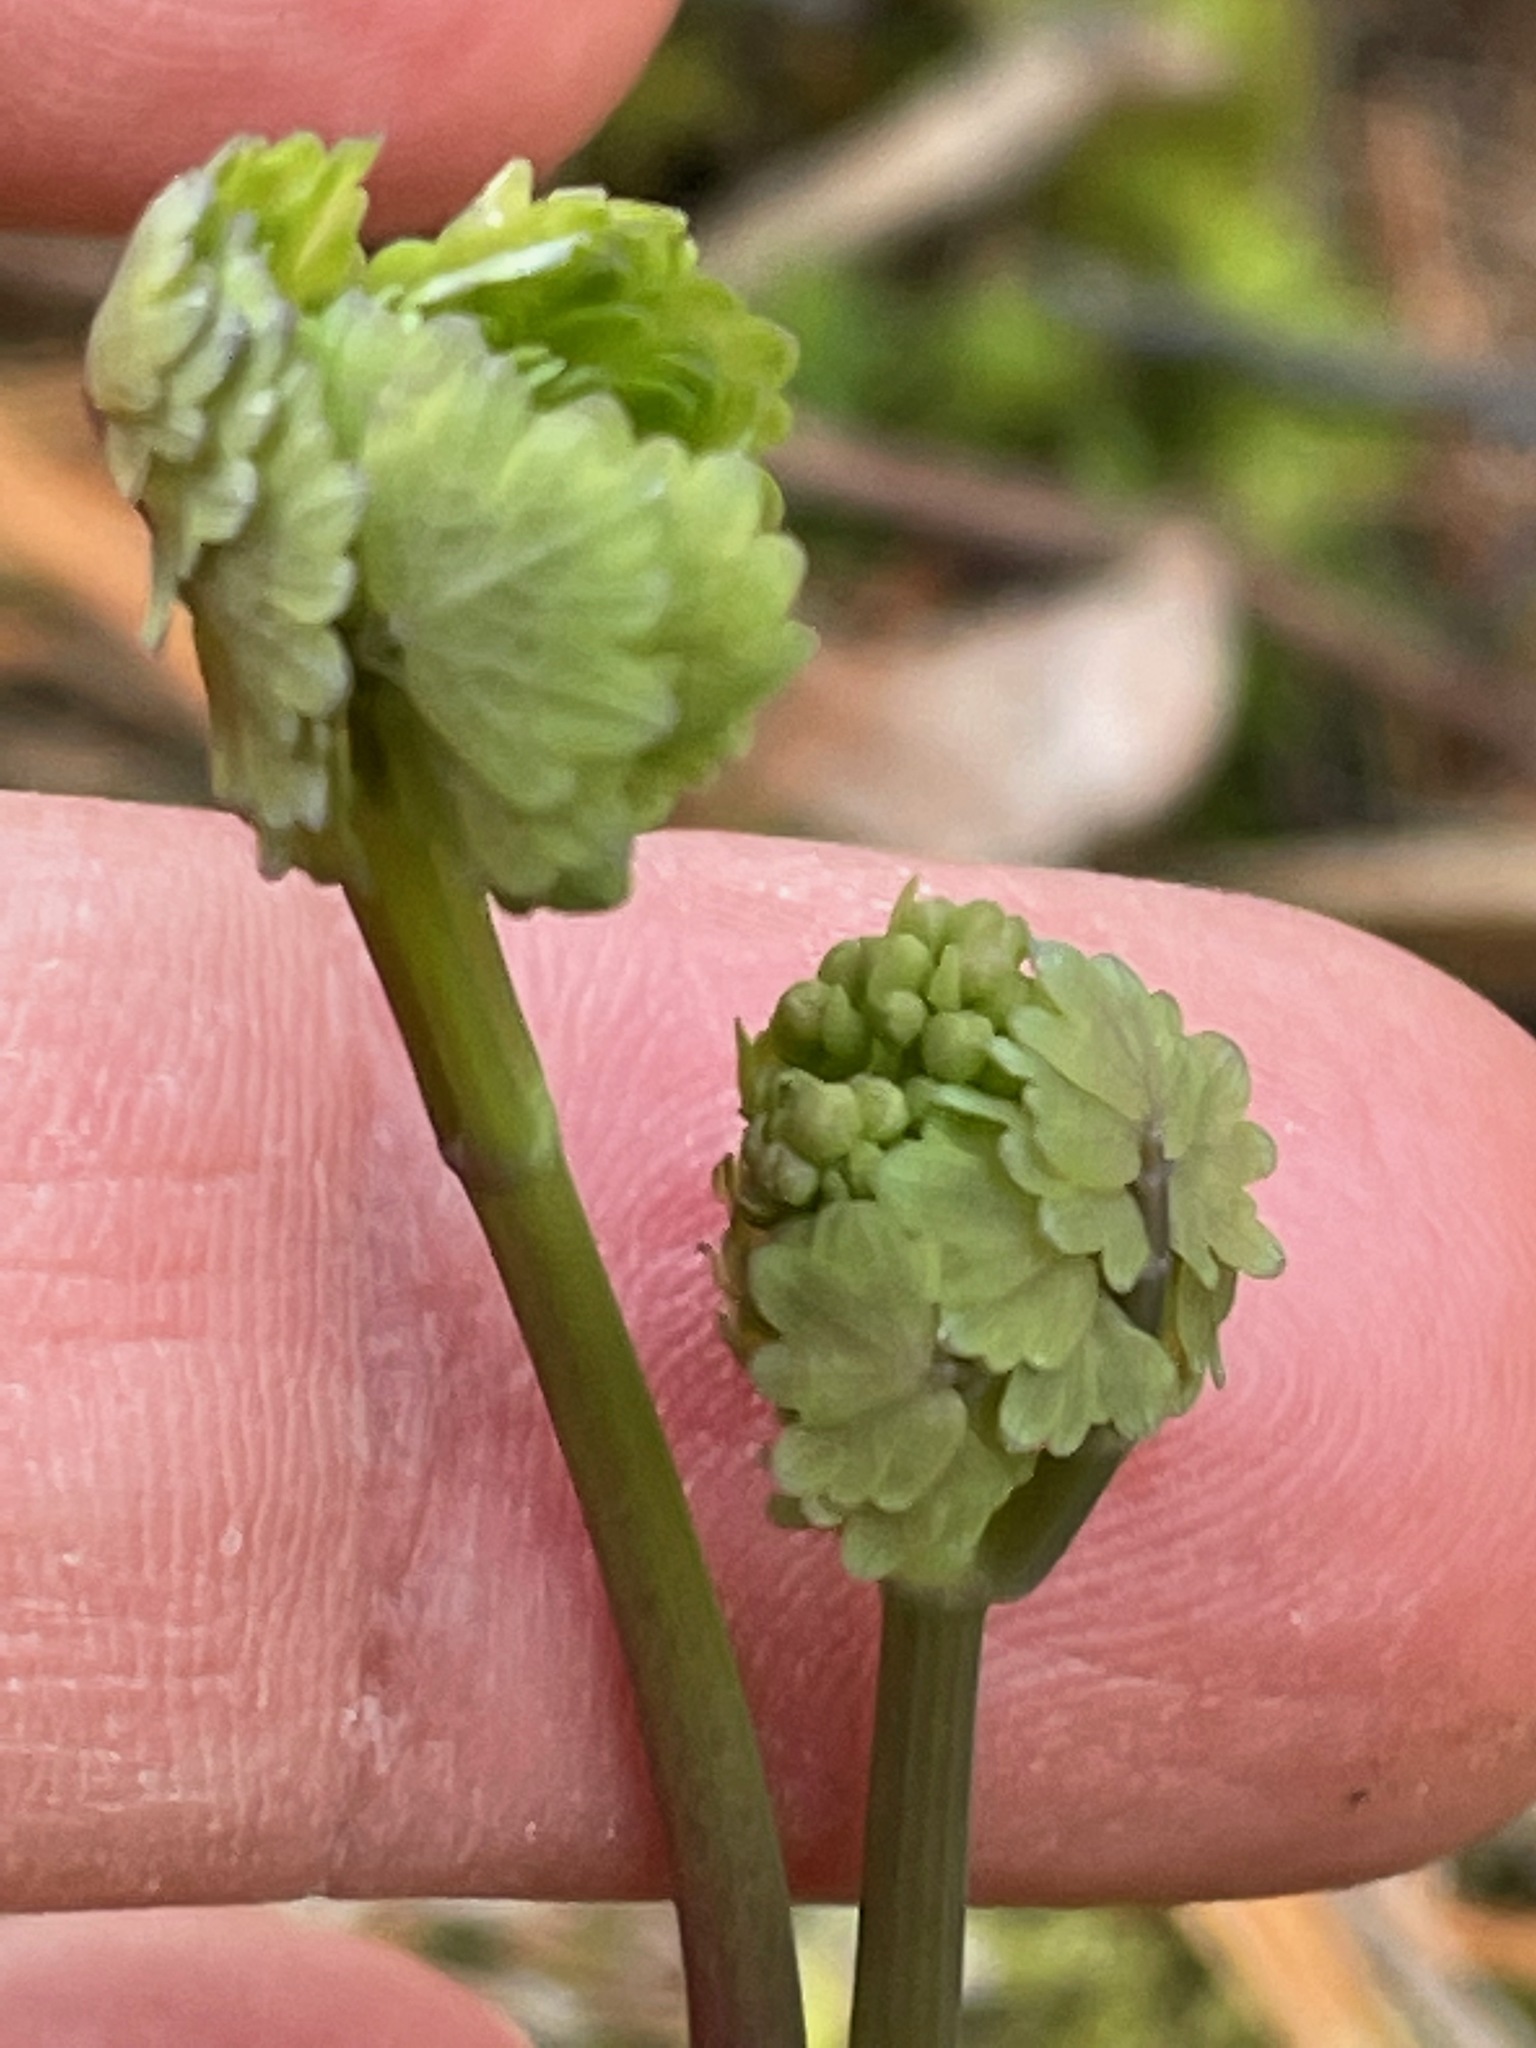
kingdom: Plantae
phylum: Tracheophyta
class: Magnoliopsida
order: Ranunculales
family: Ranunculaceae
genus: Thalictrum
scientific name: Thalictrum dioicum
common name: Early meadow-rue
